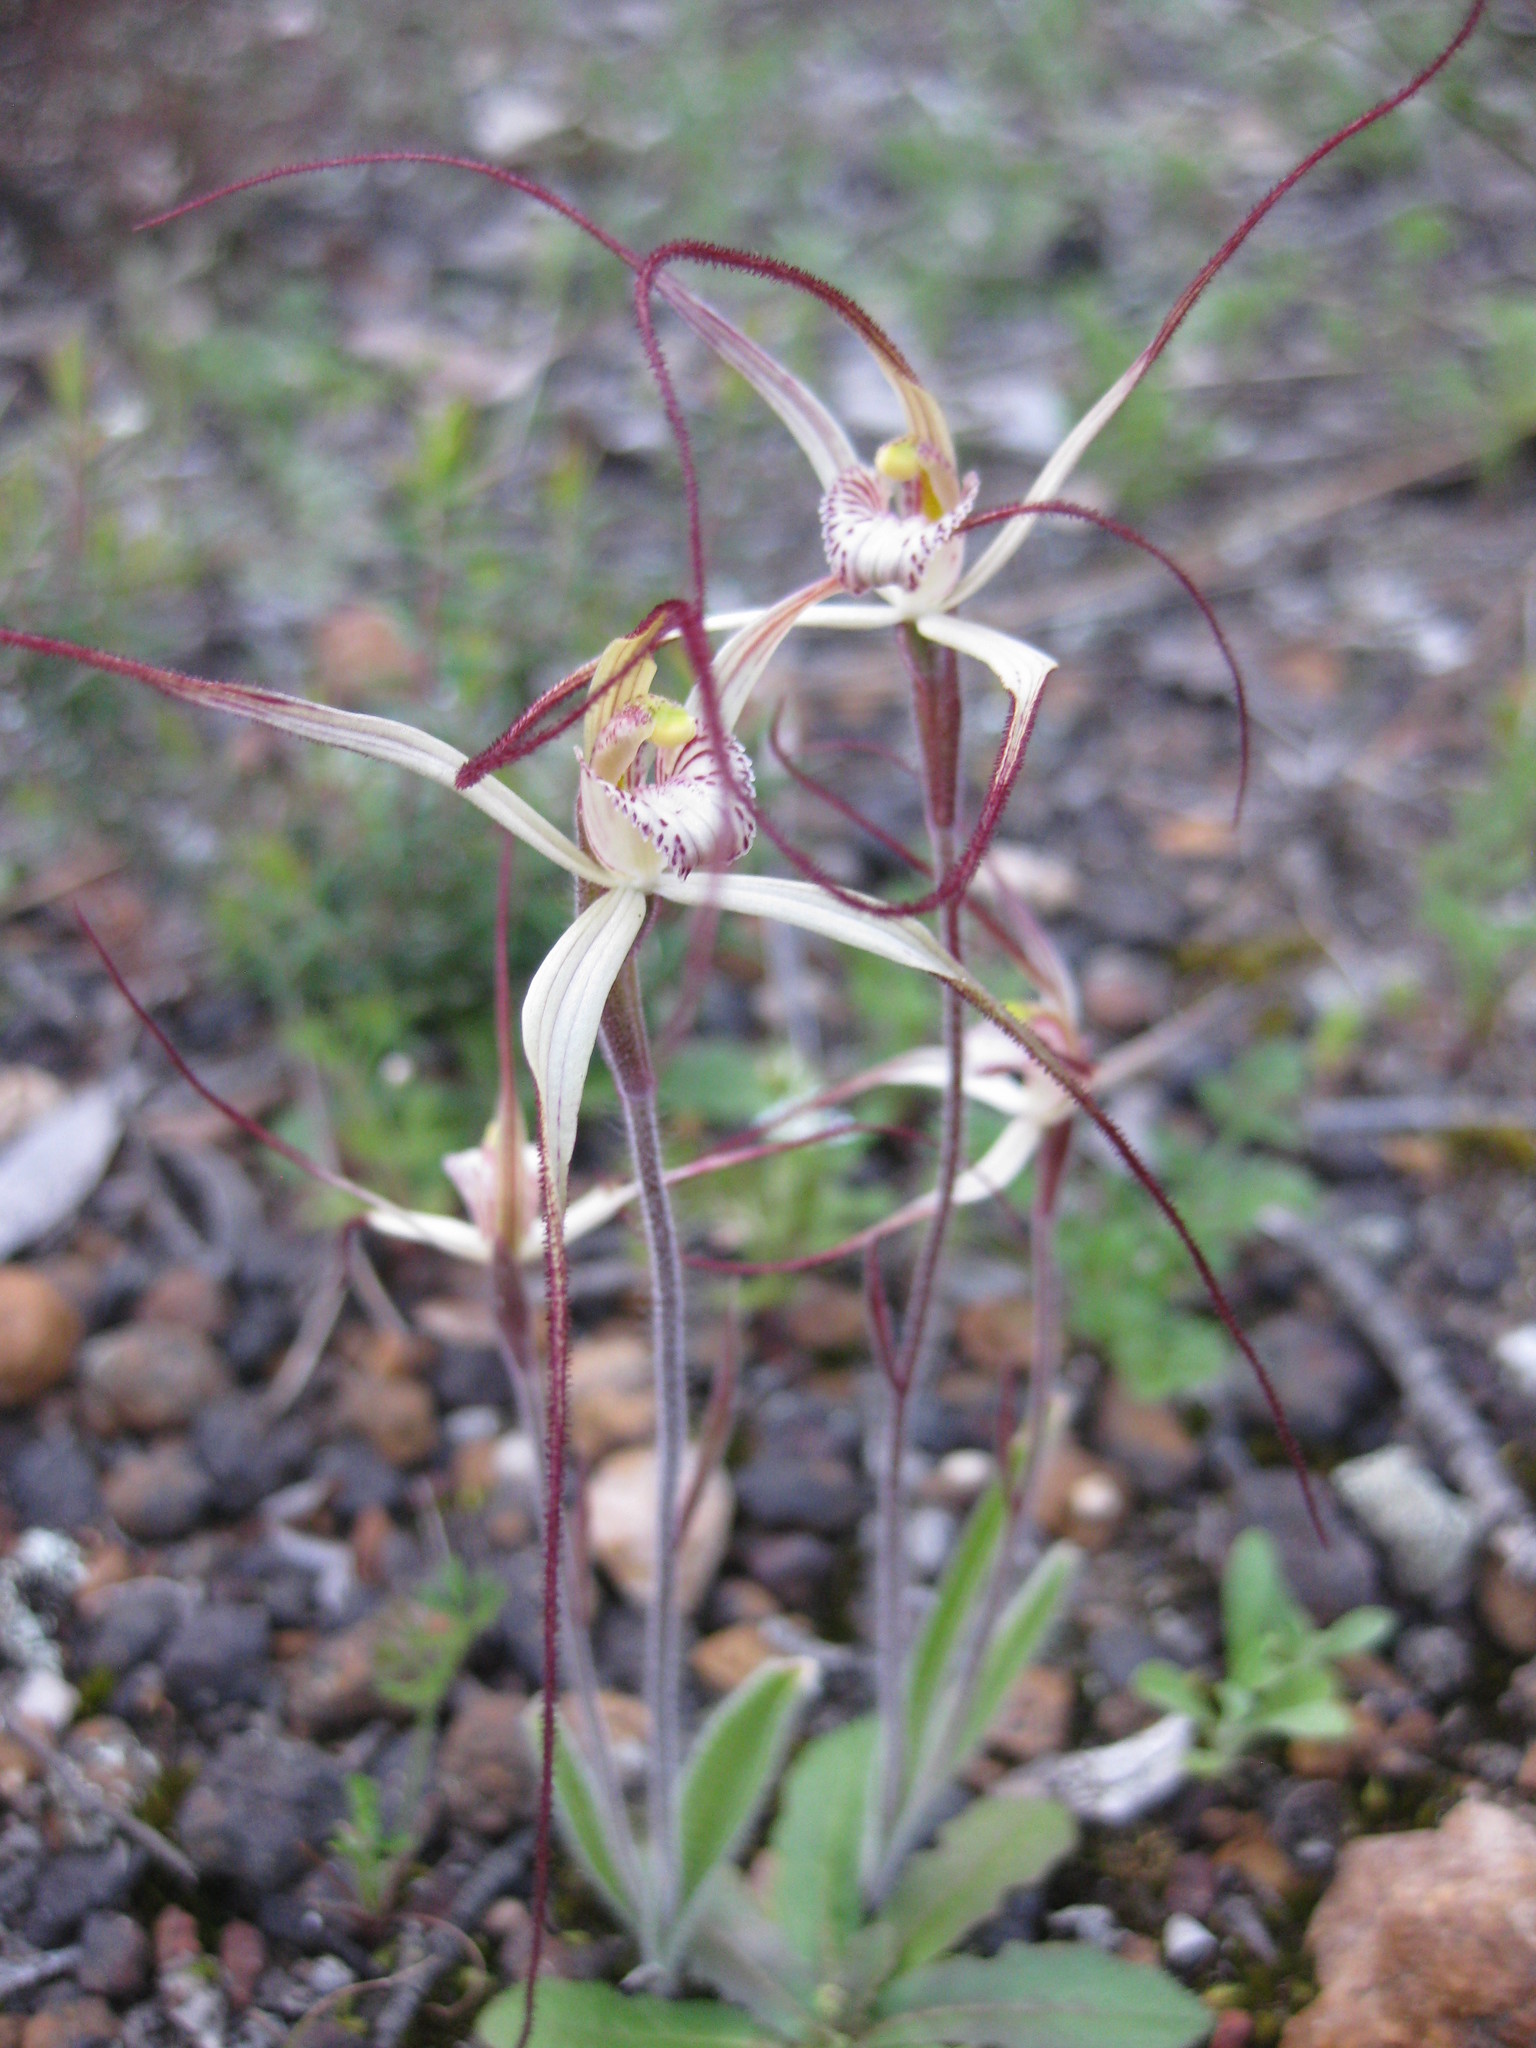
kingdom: Plantae
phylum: Tracheophyta
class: Liliopsida
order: Asparagales
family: Orchidaceae
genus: Caladenia
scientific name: Caladenia varians
